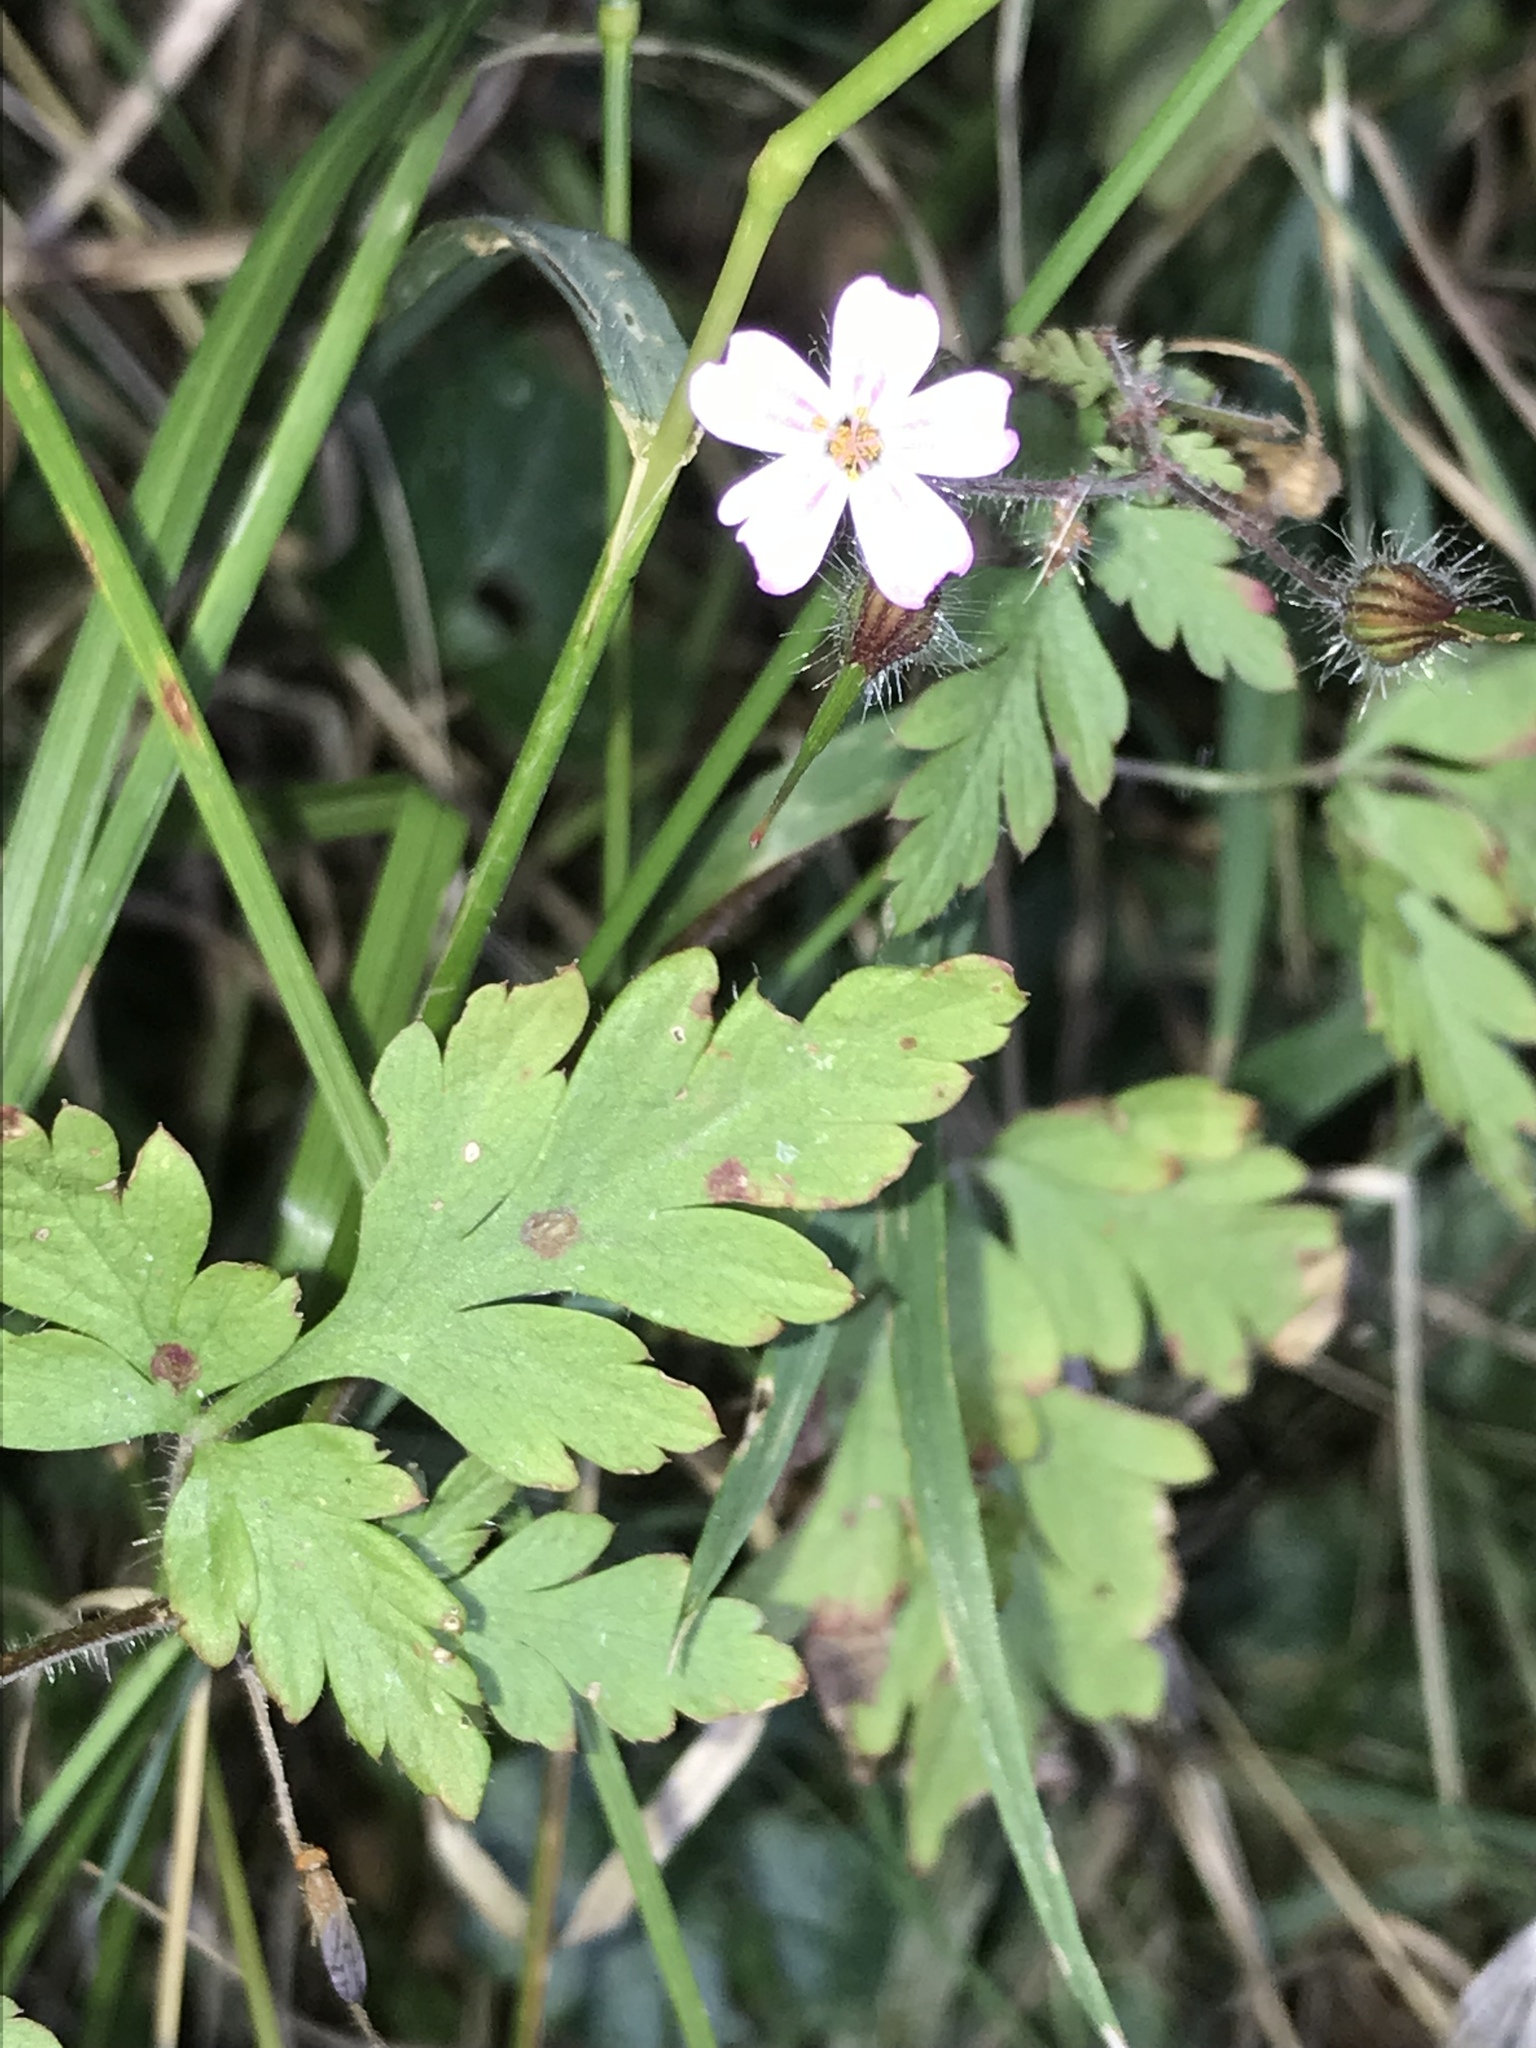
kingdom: Plantae
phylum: Tracheophyta
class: Magnoliopsida
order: Geraniales
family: Geraniaceae
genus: Geranium
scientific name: Geranium robertianum
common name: Herb-robert
